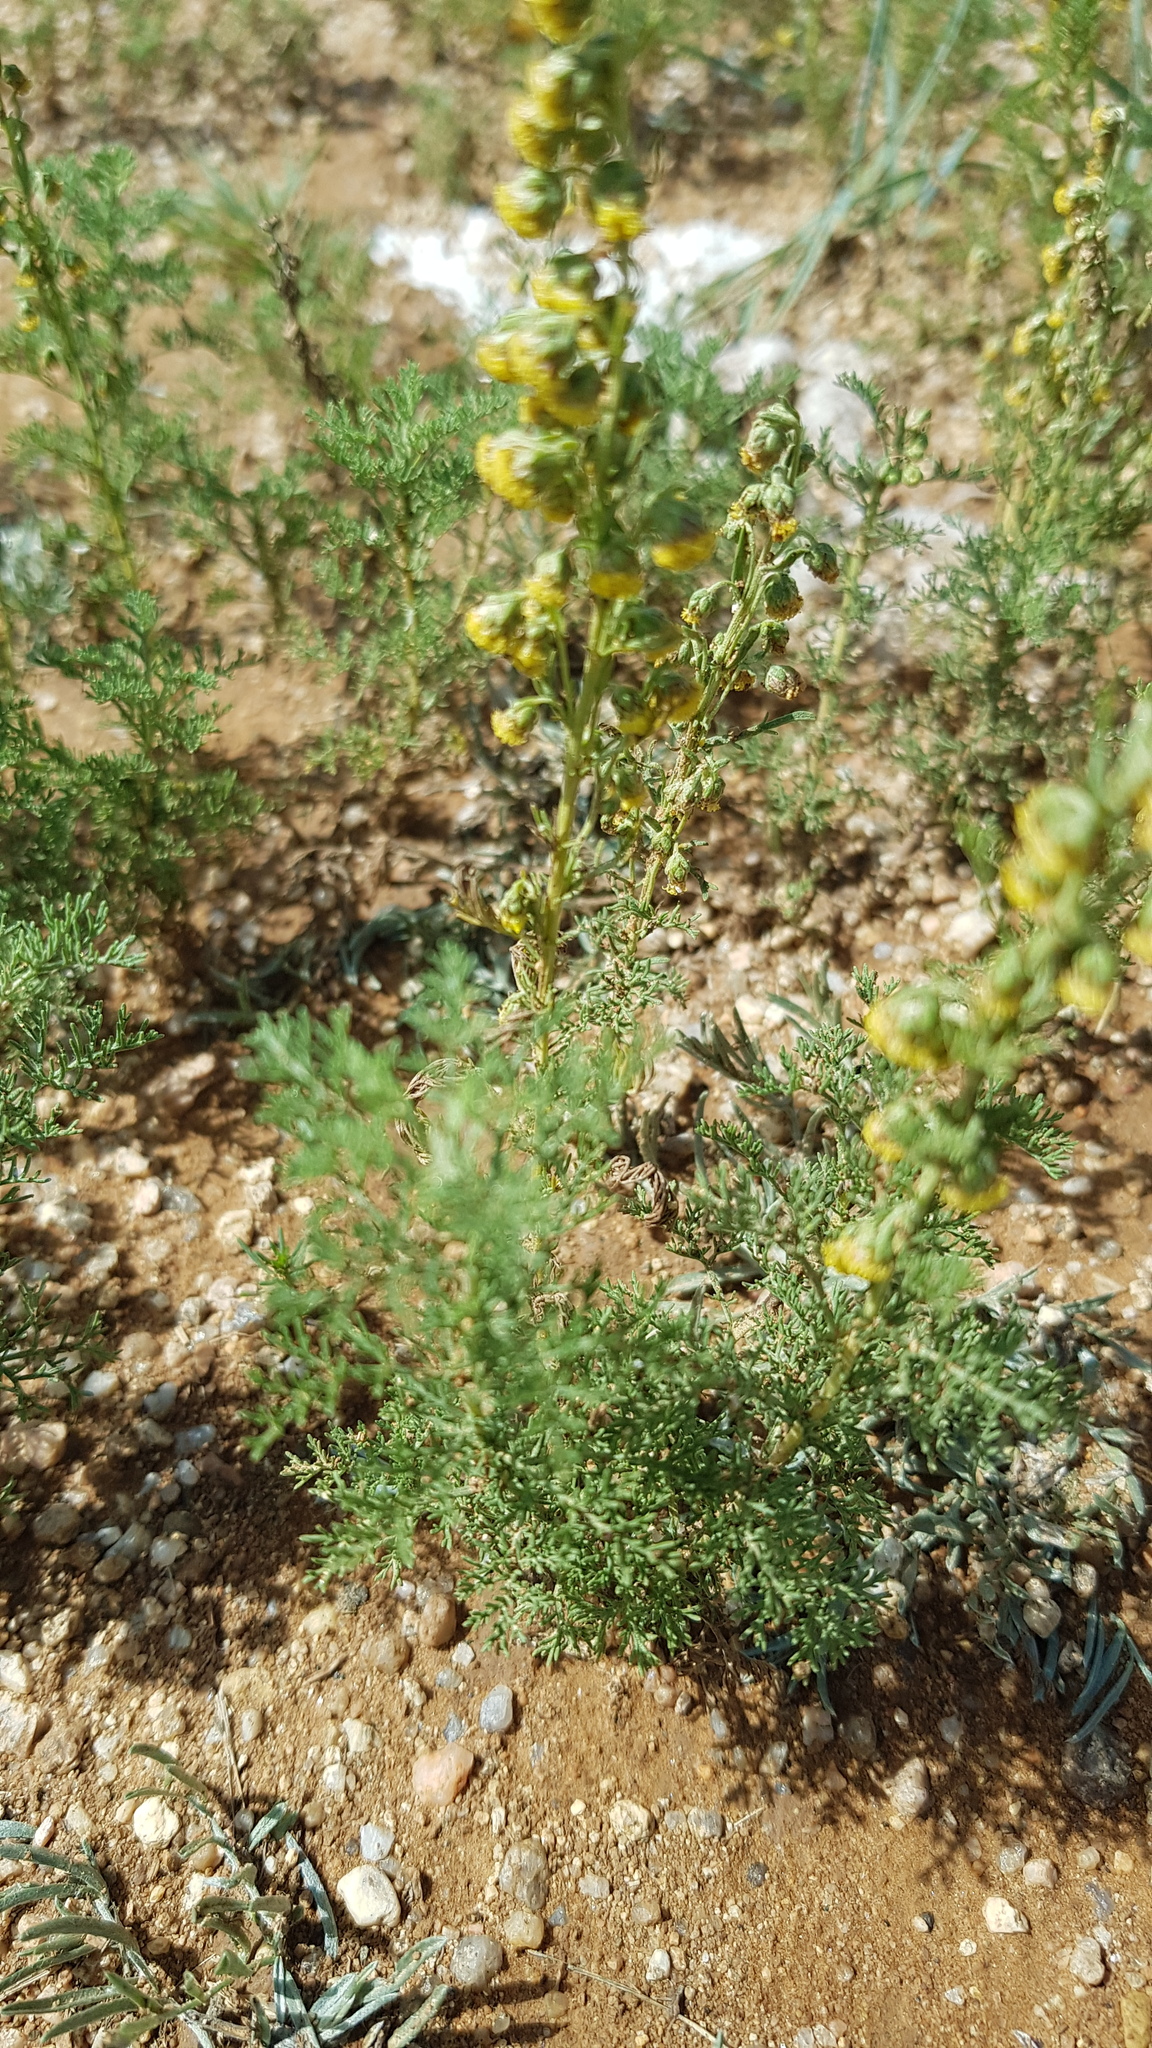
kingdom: Plantae
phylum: Tracheophyta
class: Magnoliopsida
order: Asterales
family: Asteraceae
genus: Artemisia
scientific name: Artemisia adamsii
